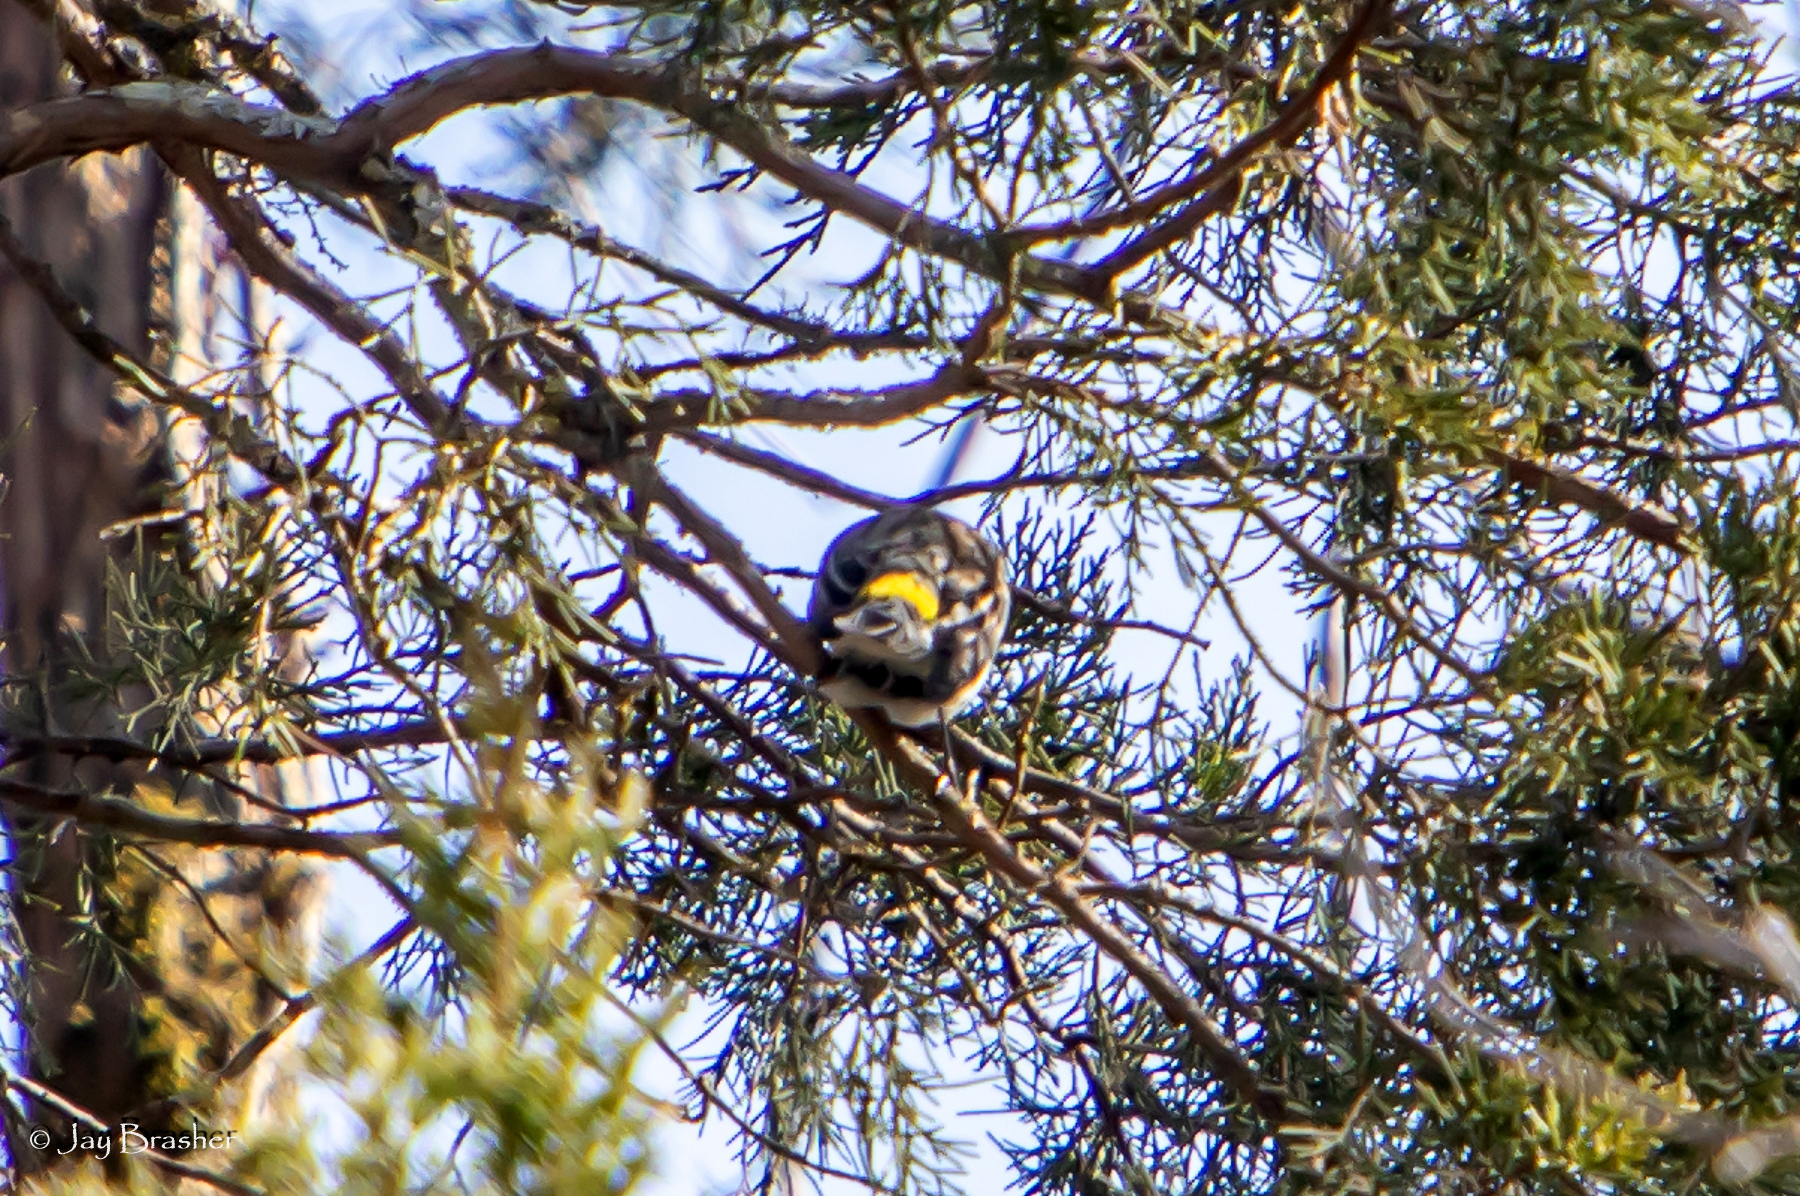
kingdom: Animalia
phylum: Chordata
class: Aves
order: Passeriformes
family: Parulidae
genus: Setophaga
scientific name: Setophaga coronata
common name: Myrtle warbler
